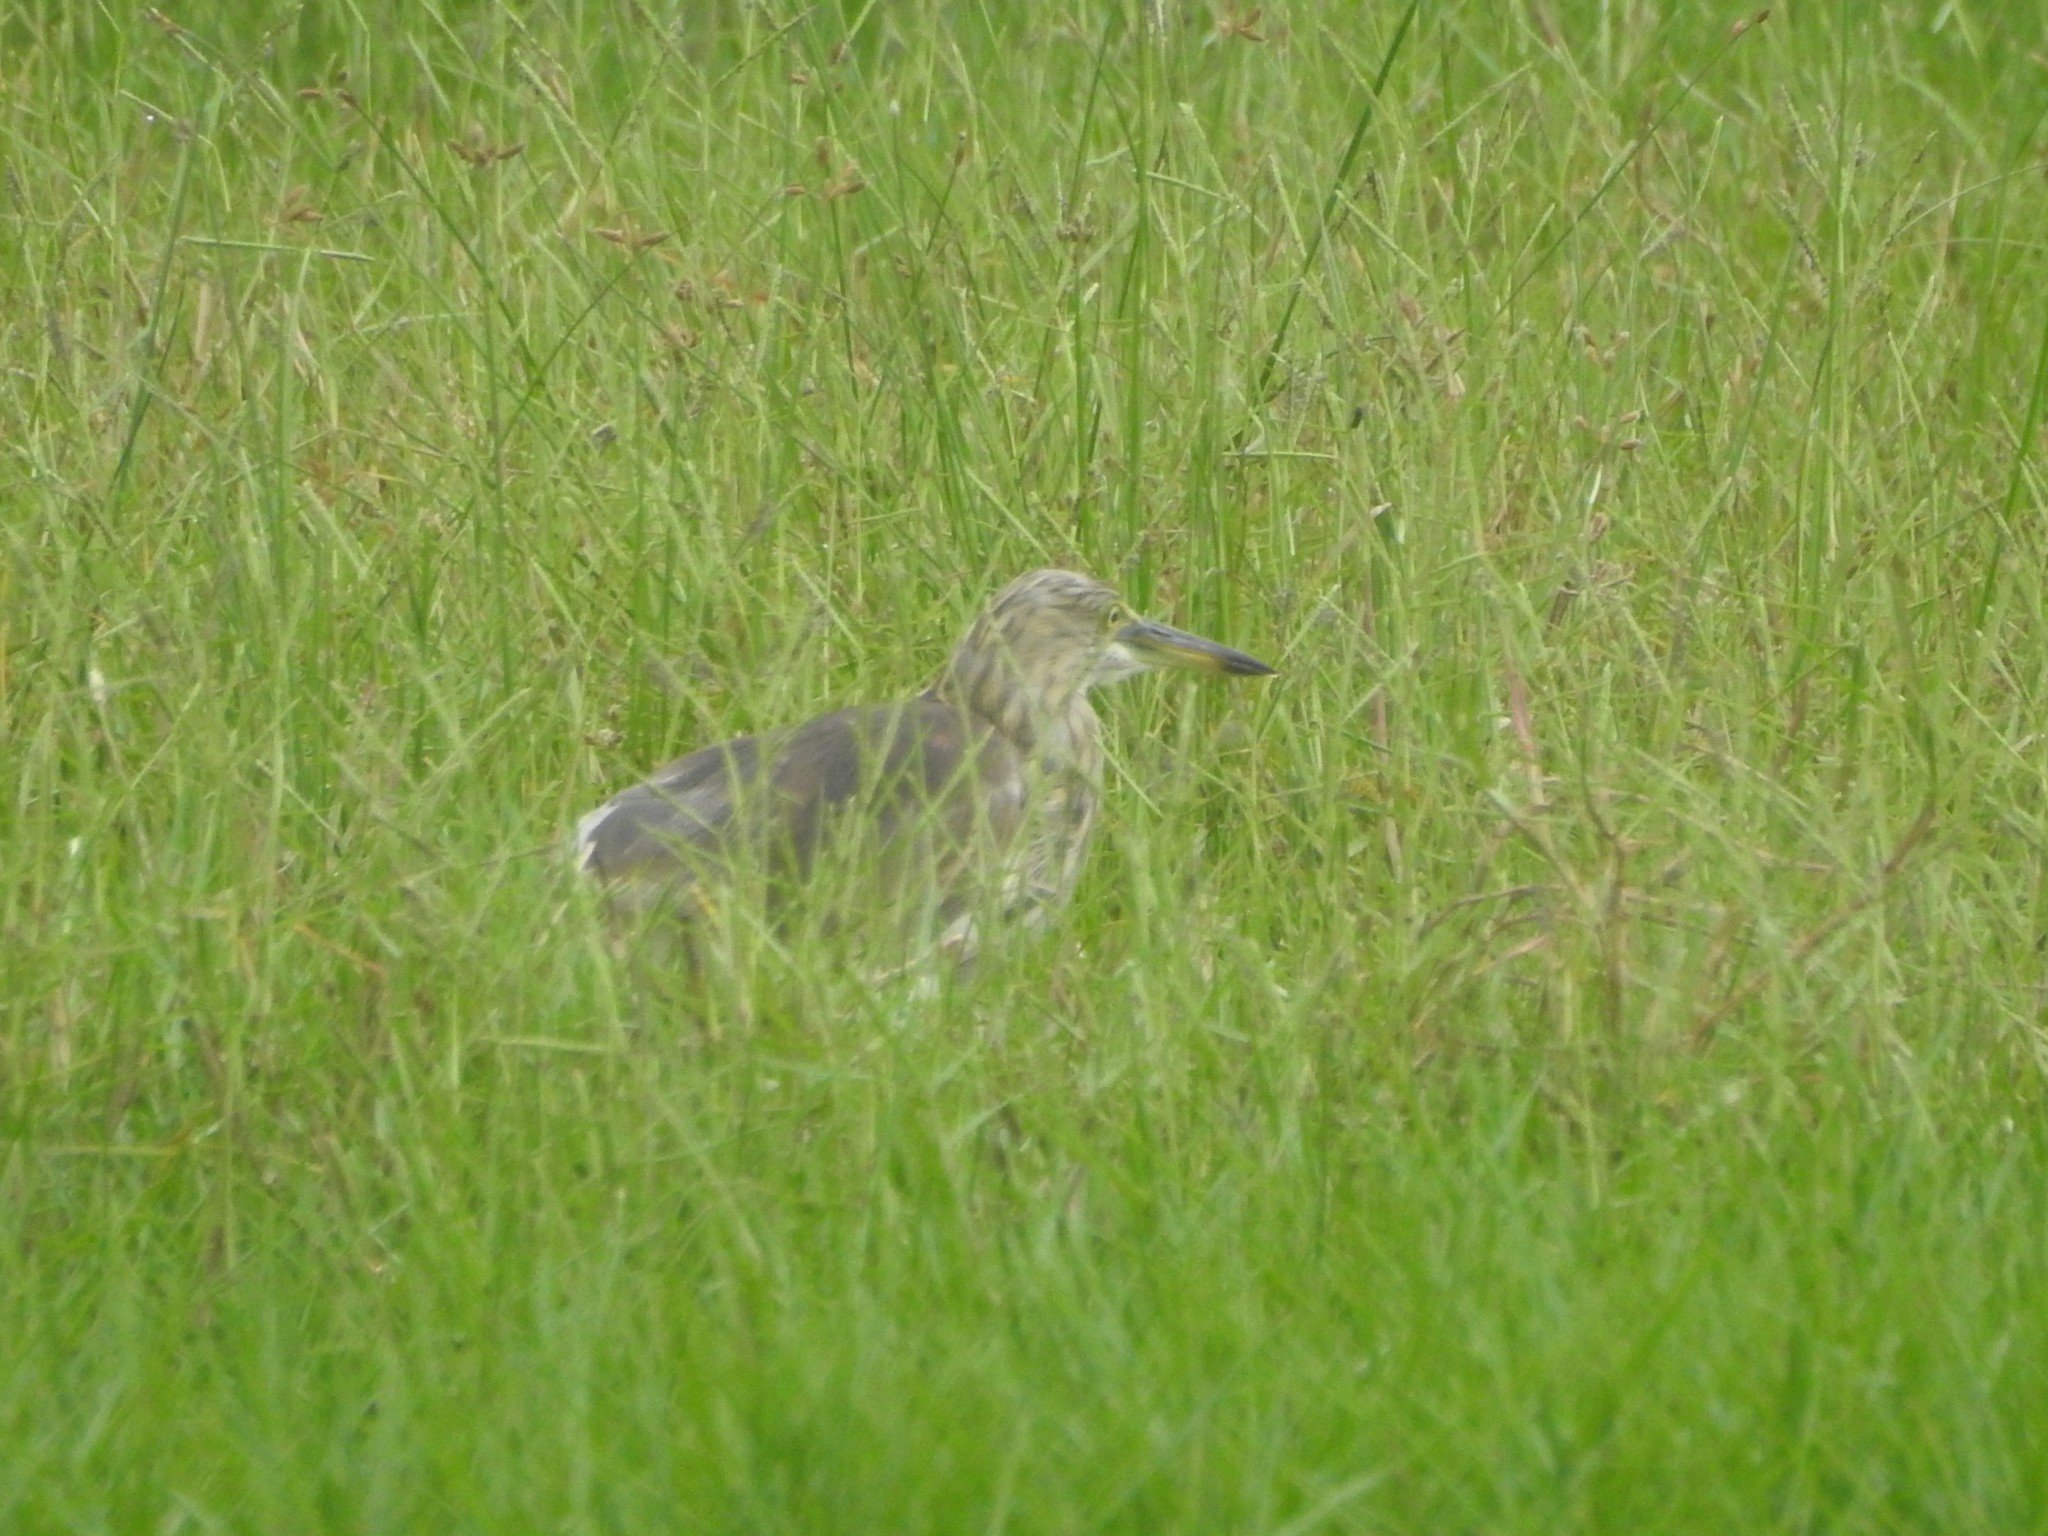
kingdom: Animalia
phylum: Chordata
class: Aves
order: Pelecaniformes
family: Ardeidae
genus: Ardeola
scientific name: Ardeola grayii
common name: Indian pond heron
